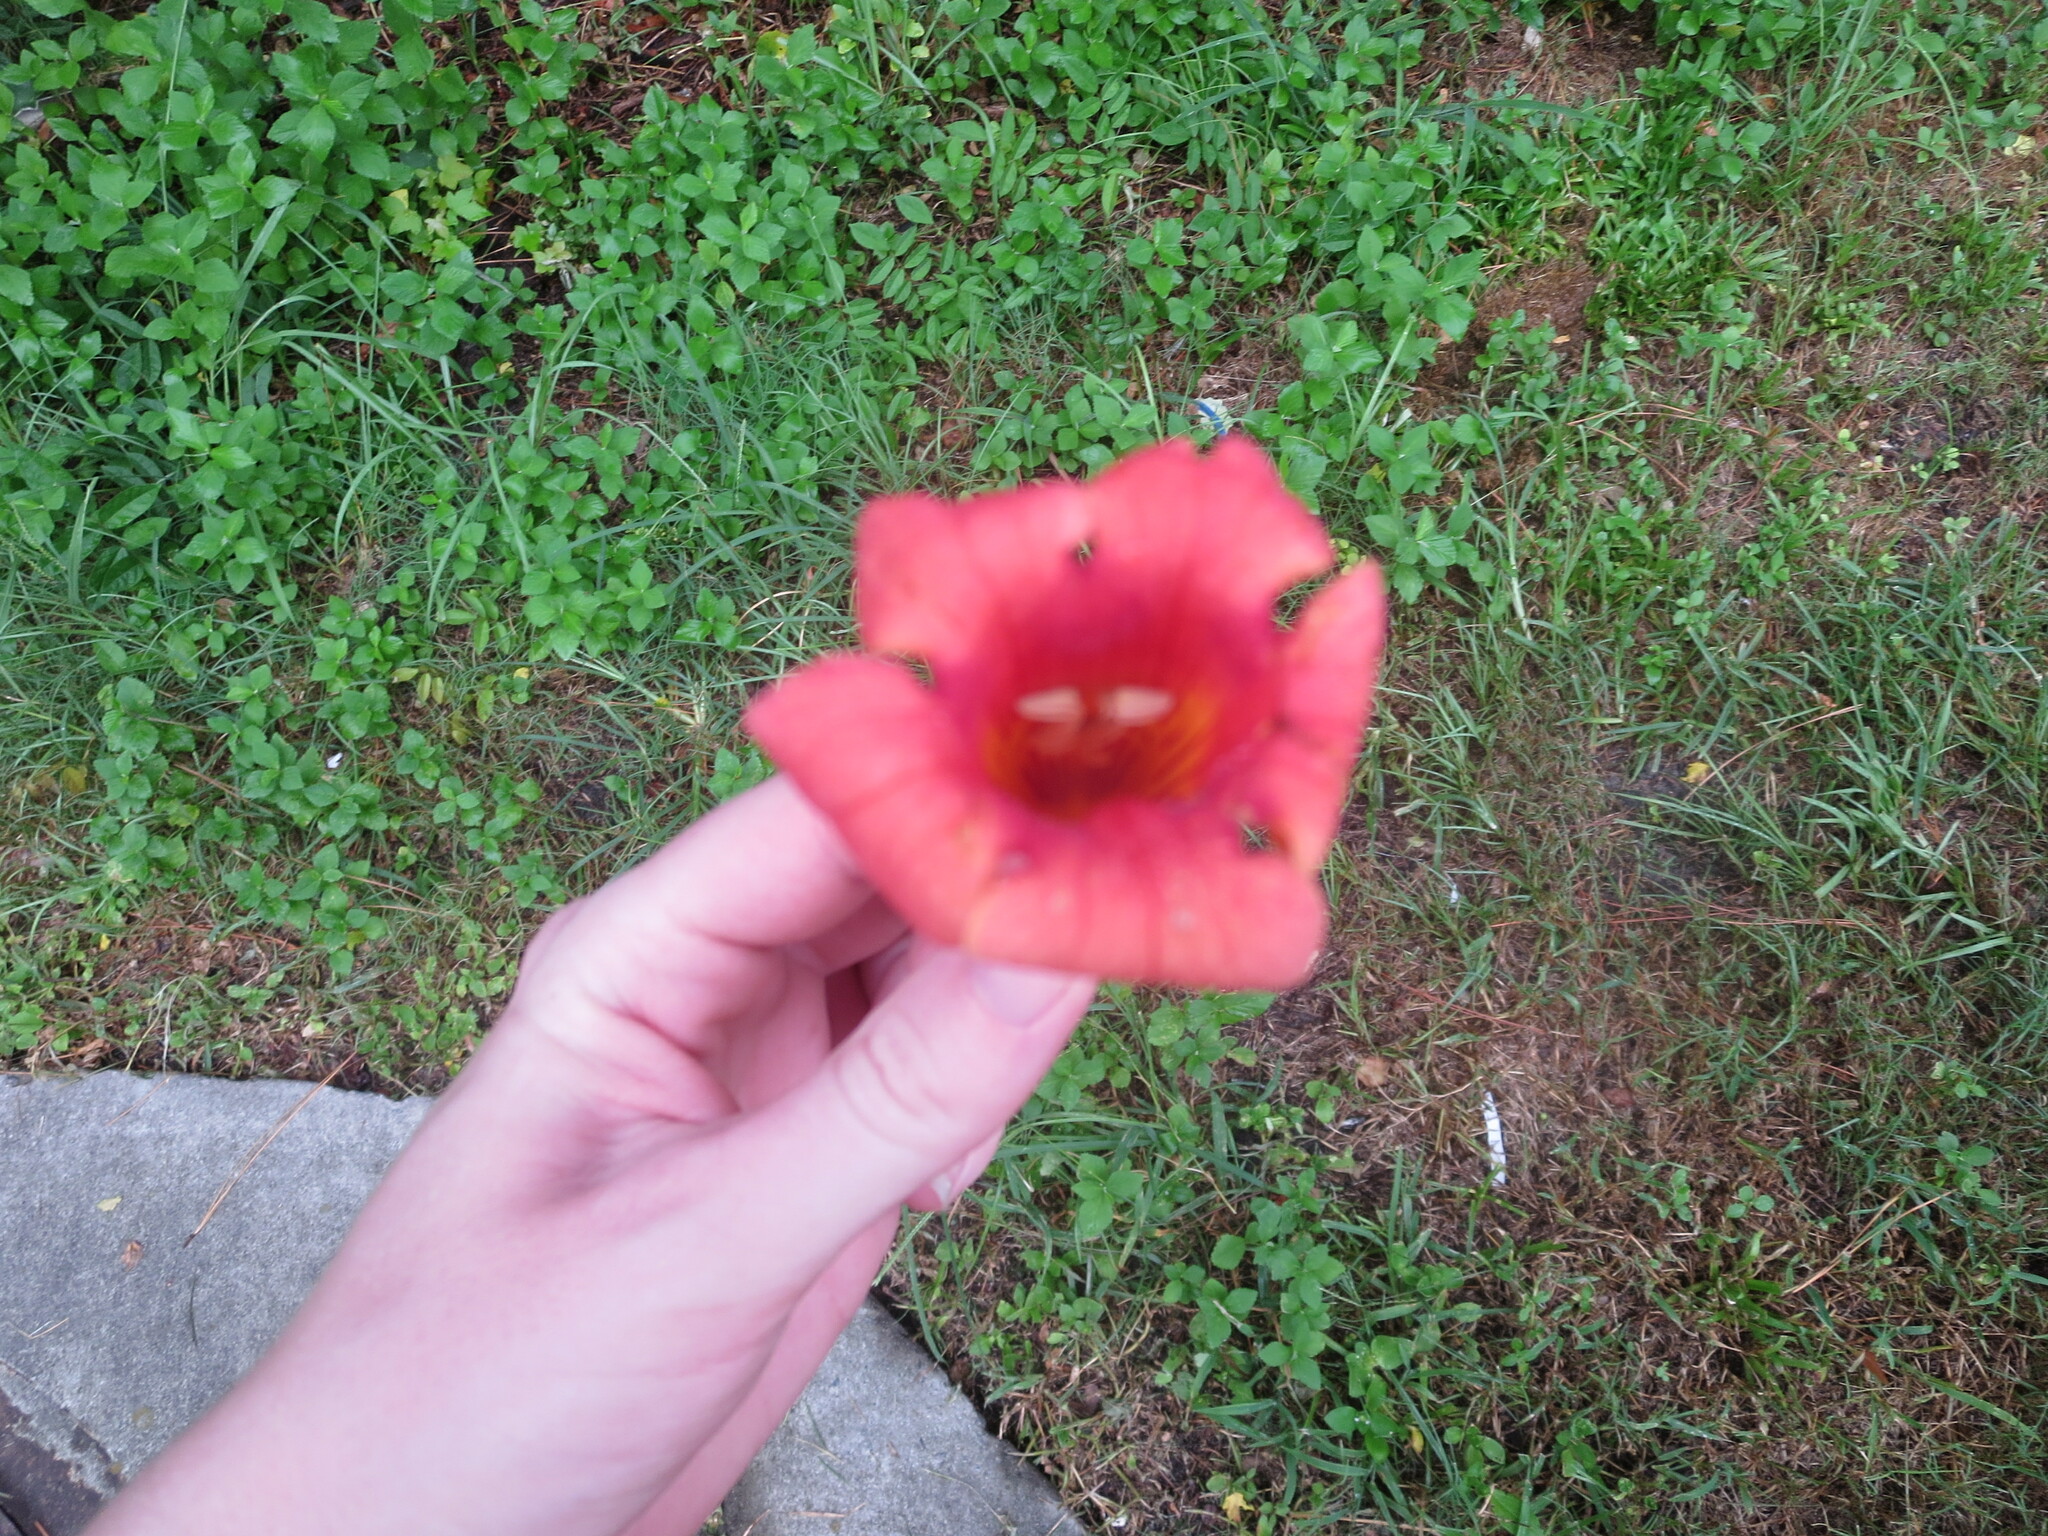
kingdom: Plantae
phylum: Tracheophyta
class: Magnoliopsida
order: Lamiales
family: Bignoniaceae
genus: Campsis
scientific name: Campsis radicans
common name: Trumpet-creeper
